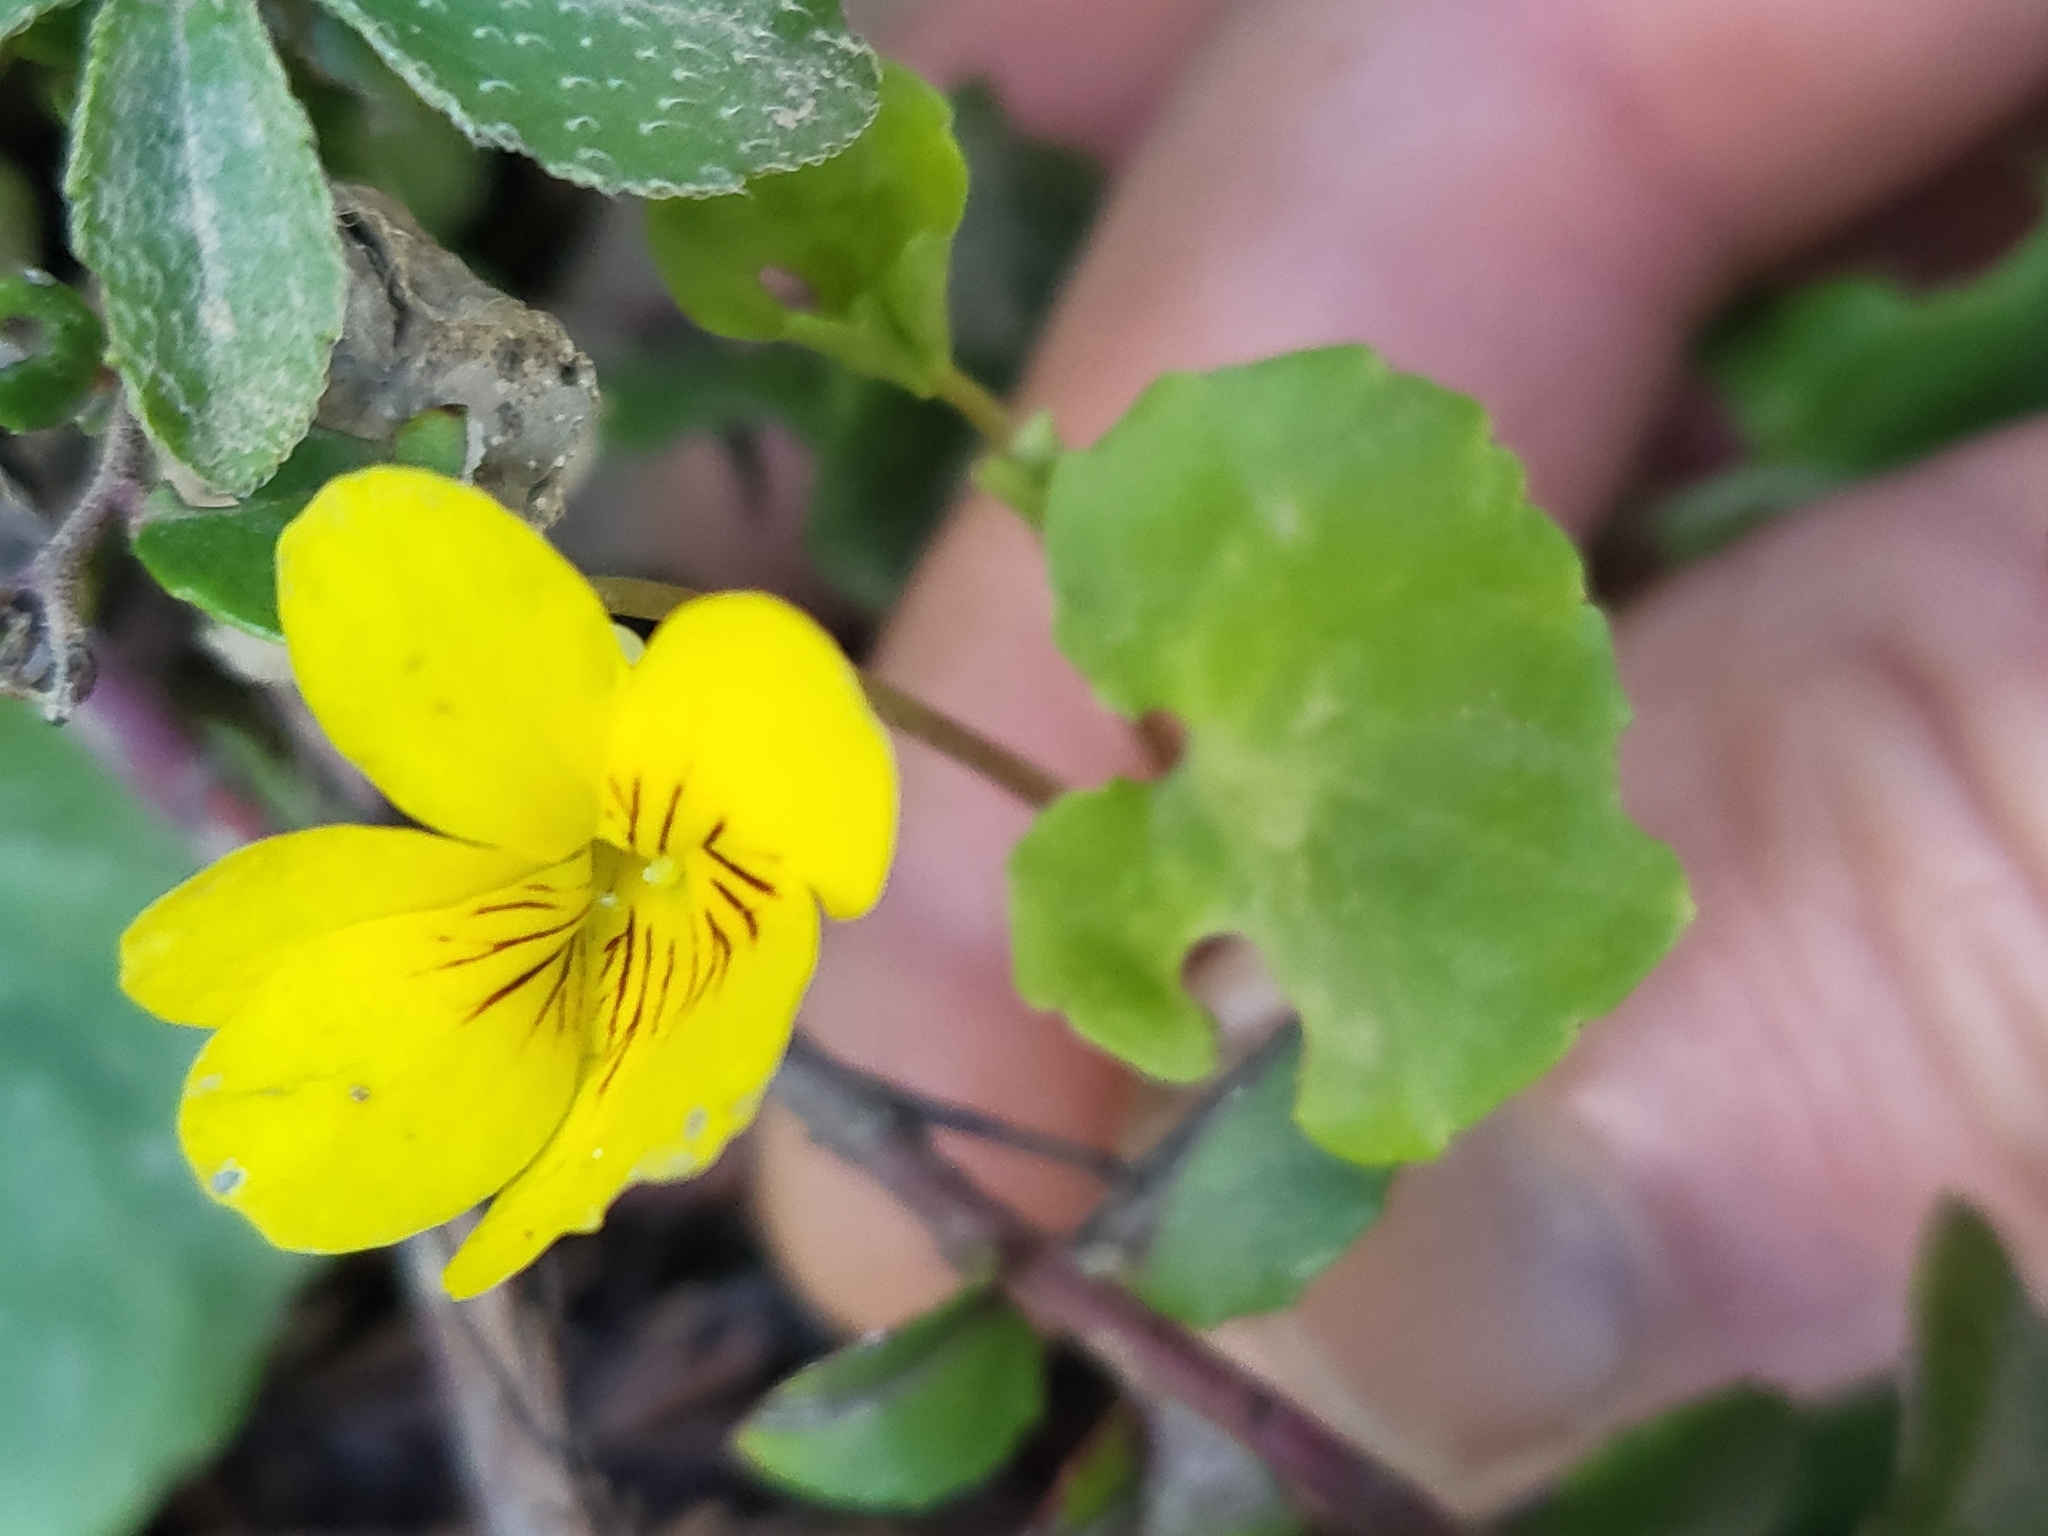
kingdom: Plantae
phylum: Tracheophyta
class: Magnoliopsida
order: Malpighiales
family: Violaceae
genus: Viola
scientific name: Viola sempervirens
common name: Evergreen violet
